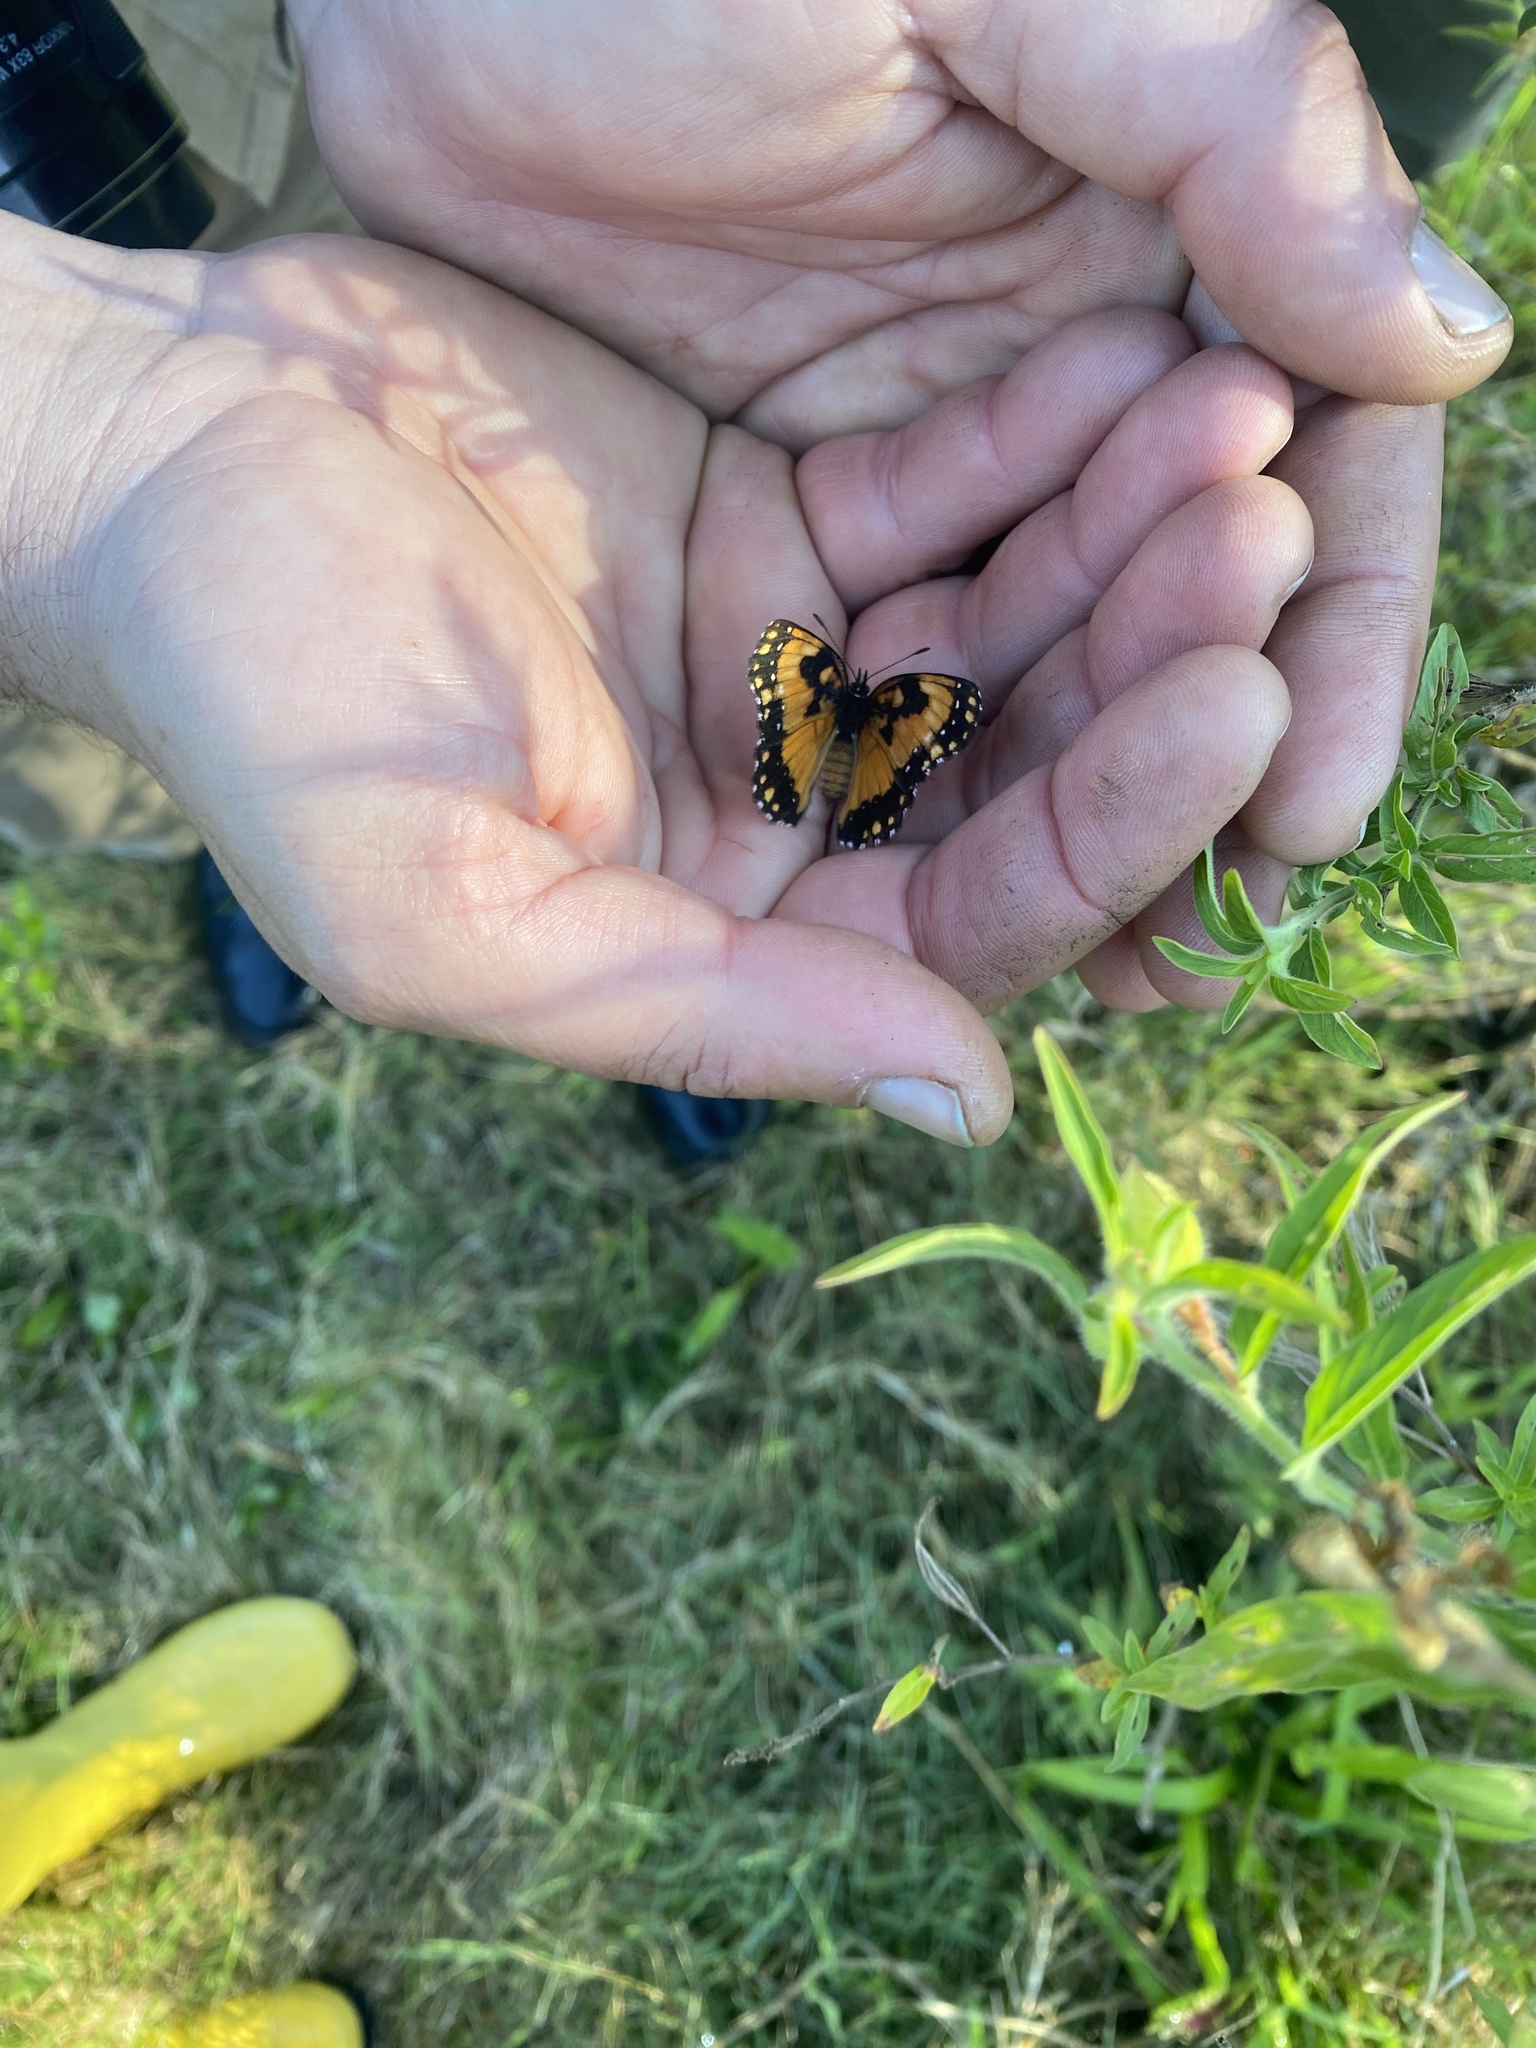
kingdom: Animalia
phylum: Arthropoda
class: Insecta
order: Lepidoptera
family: Nymphalidae
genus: Chlosyne
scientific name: Chlosyne lacinia
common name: Bordered patch
